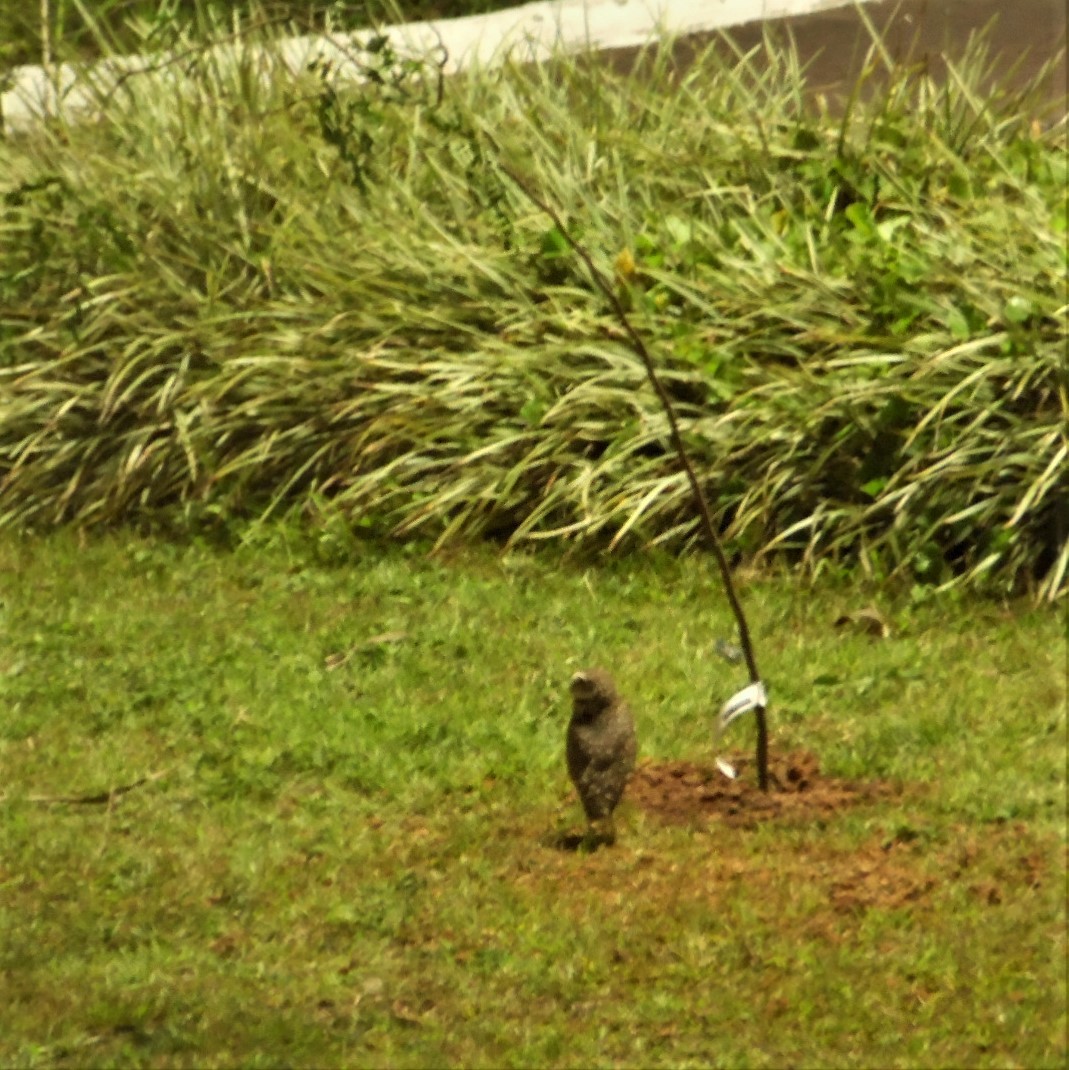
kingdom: Animalia
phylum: Chordata
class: Aves
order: Strigiformes
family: Strigidae
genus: Athene
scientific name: Athene cunicularia
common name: Burrowing owl
